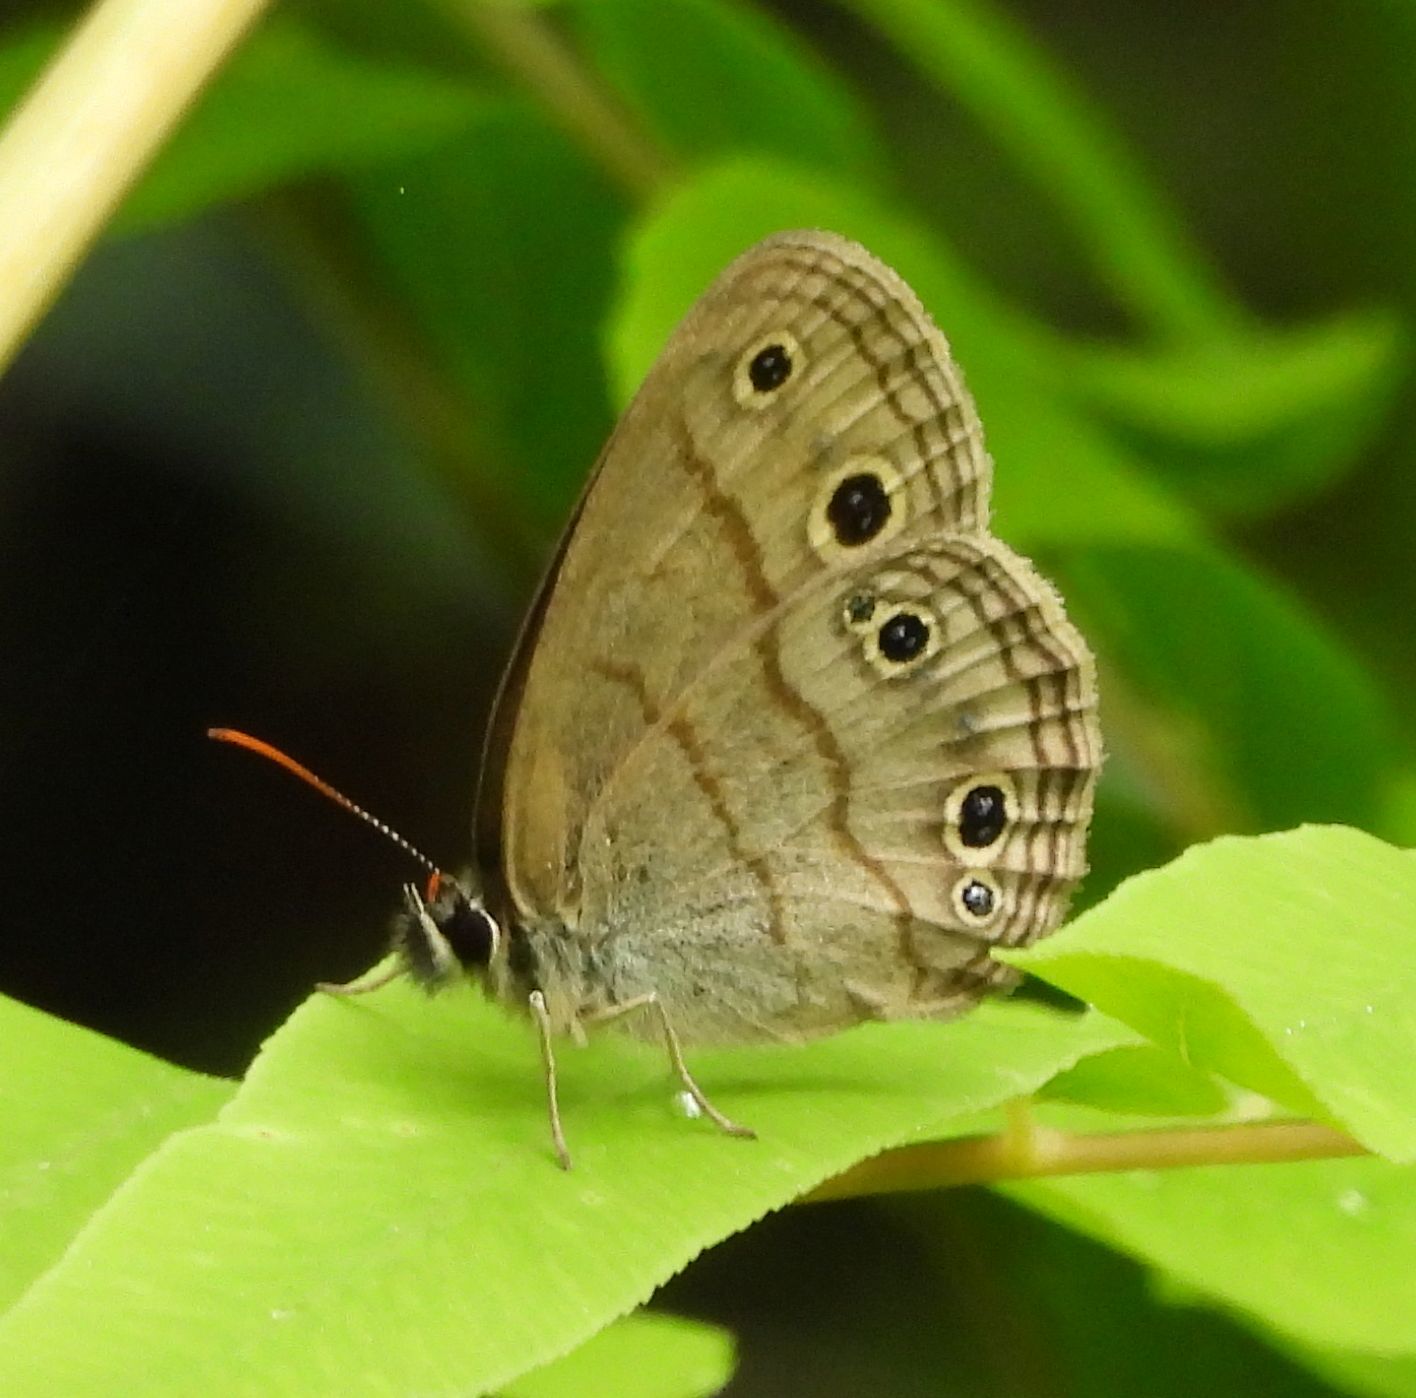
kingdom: Animalia
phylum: Arthropoda
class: Insecta
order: Lepidoptera
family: Nymphalidae
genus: Euptychia
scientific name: Euptychia cymela
